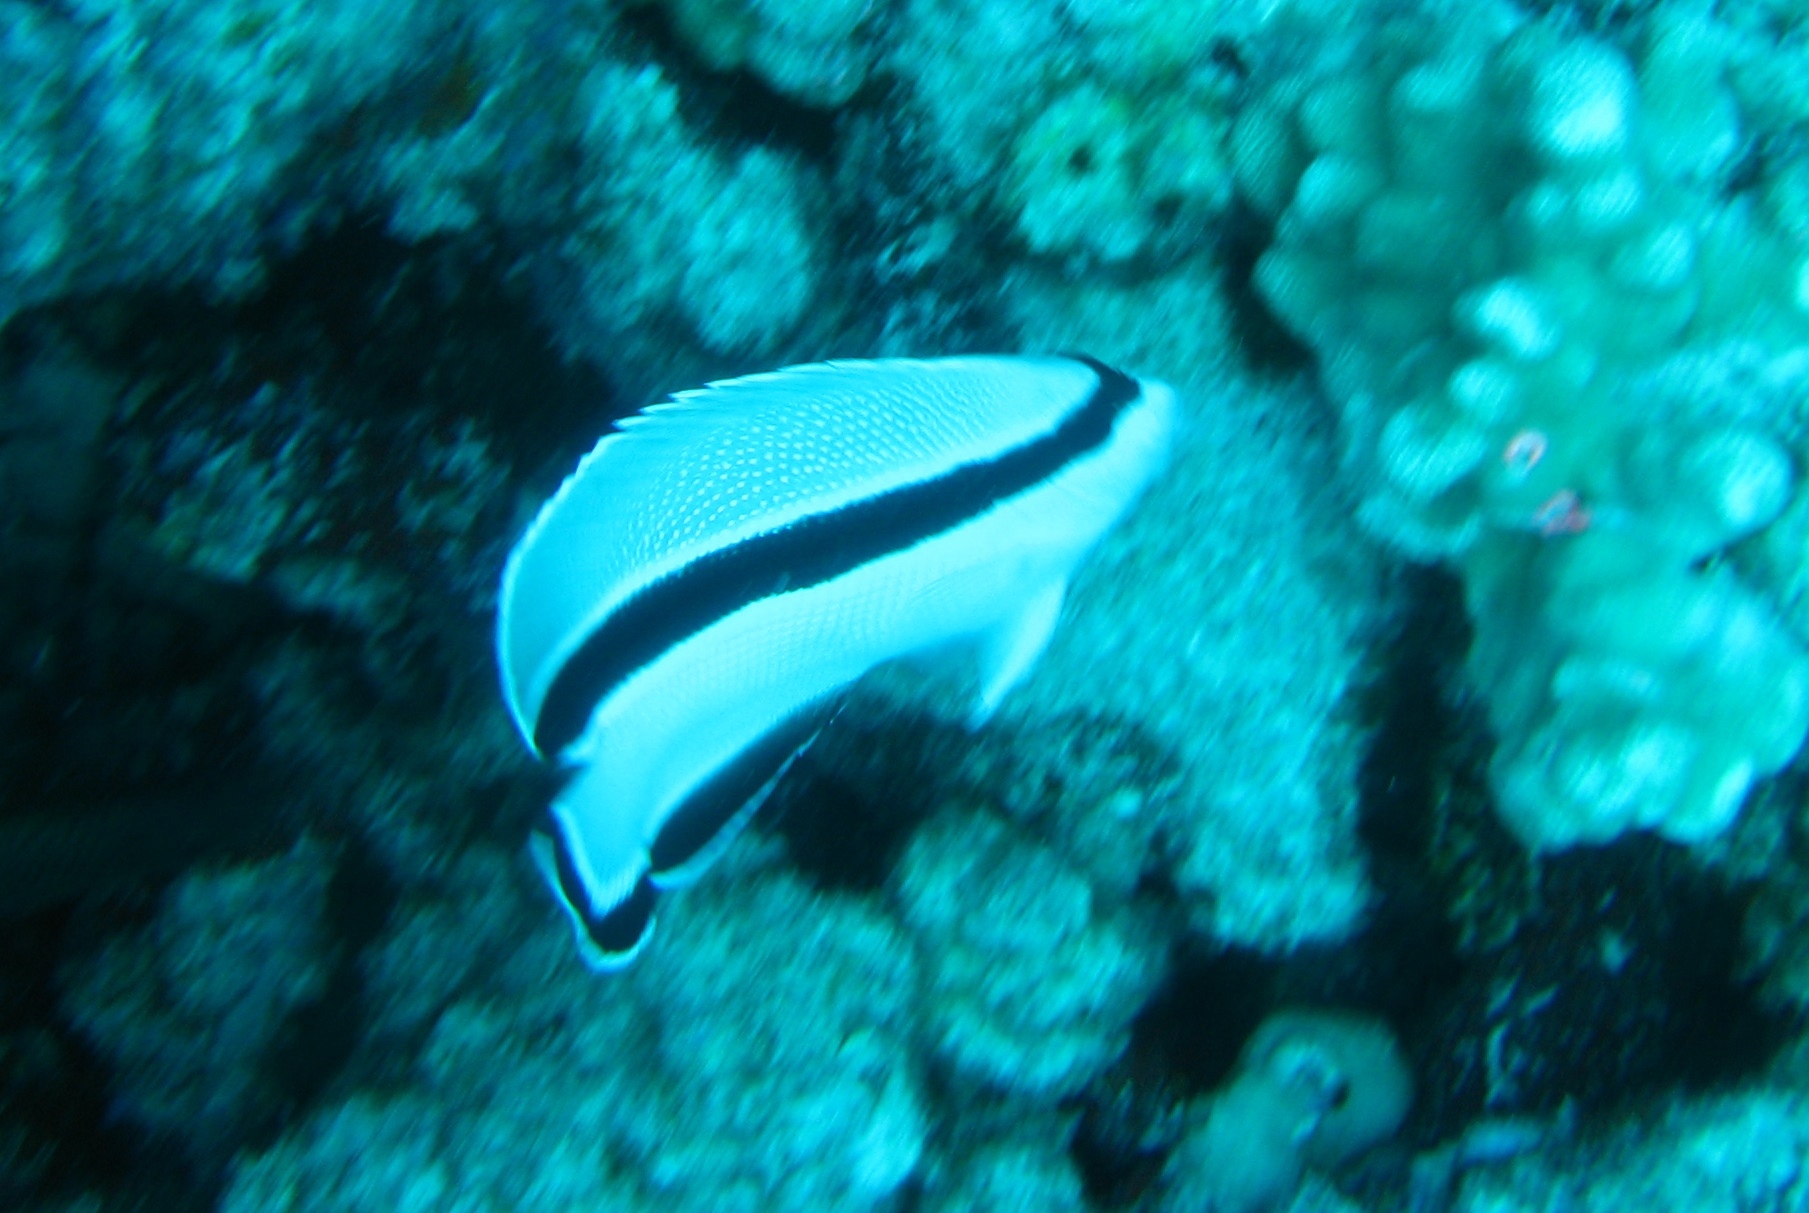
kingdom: Animalia
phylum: Chordata
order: Perciformes
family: Pomacanthidae
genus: Apolemichthys
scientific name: Apolemichthys arcuatus
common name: Bandit angelfish
